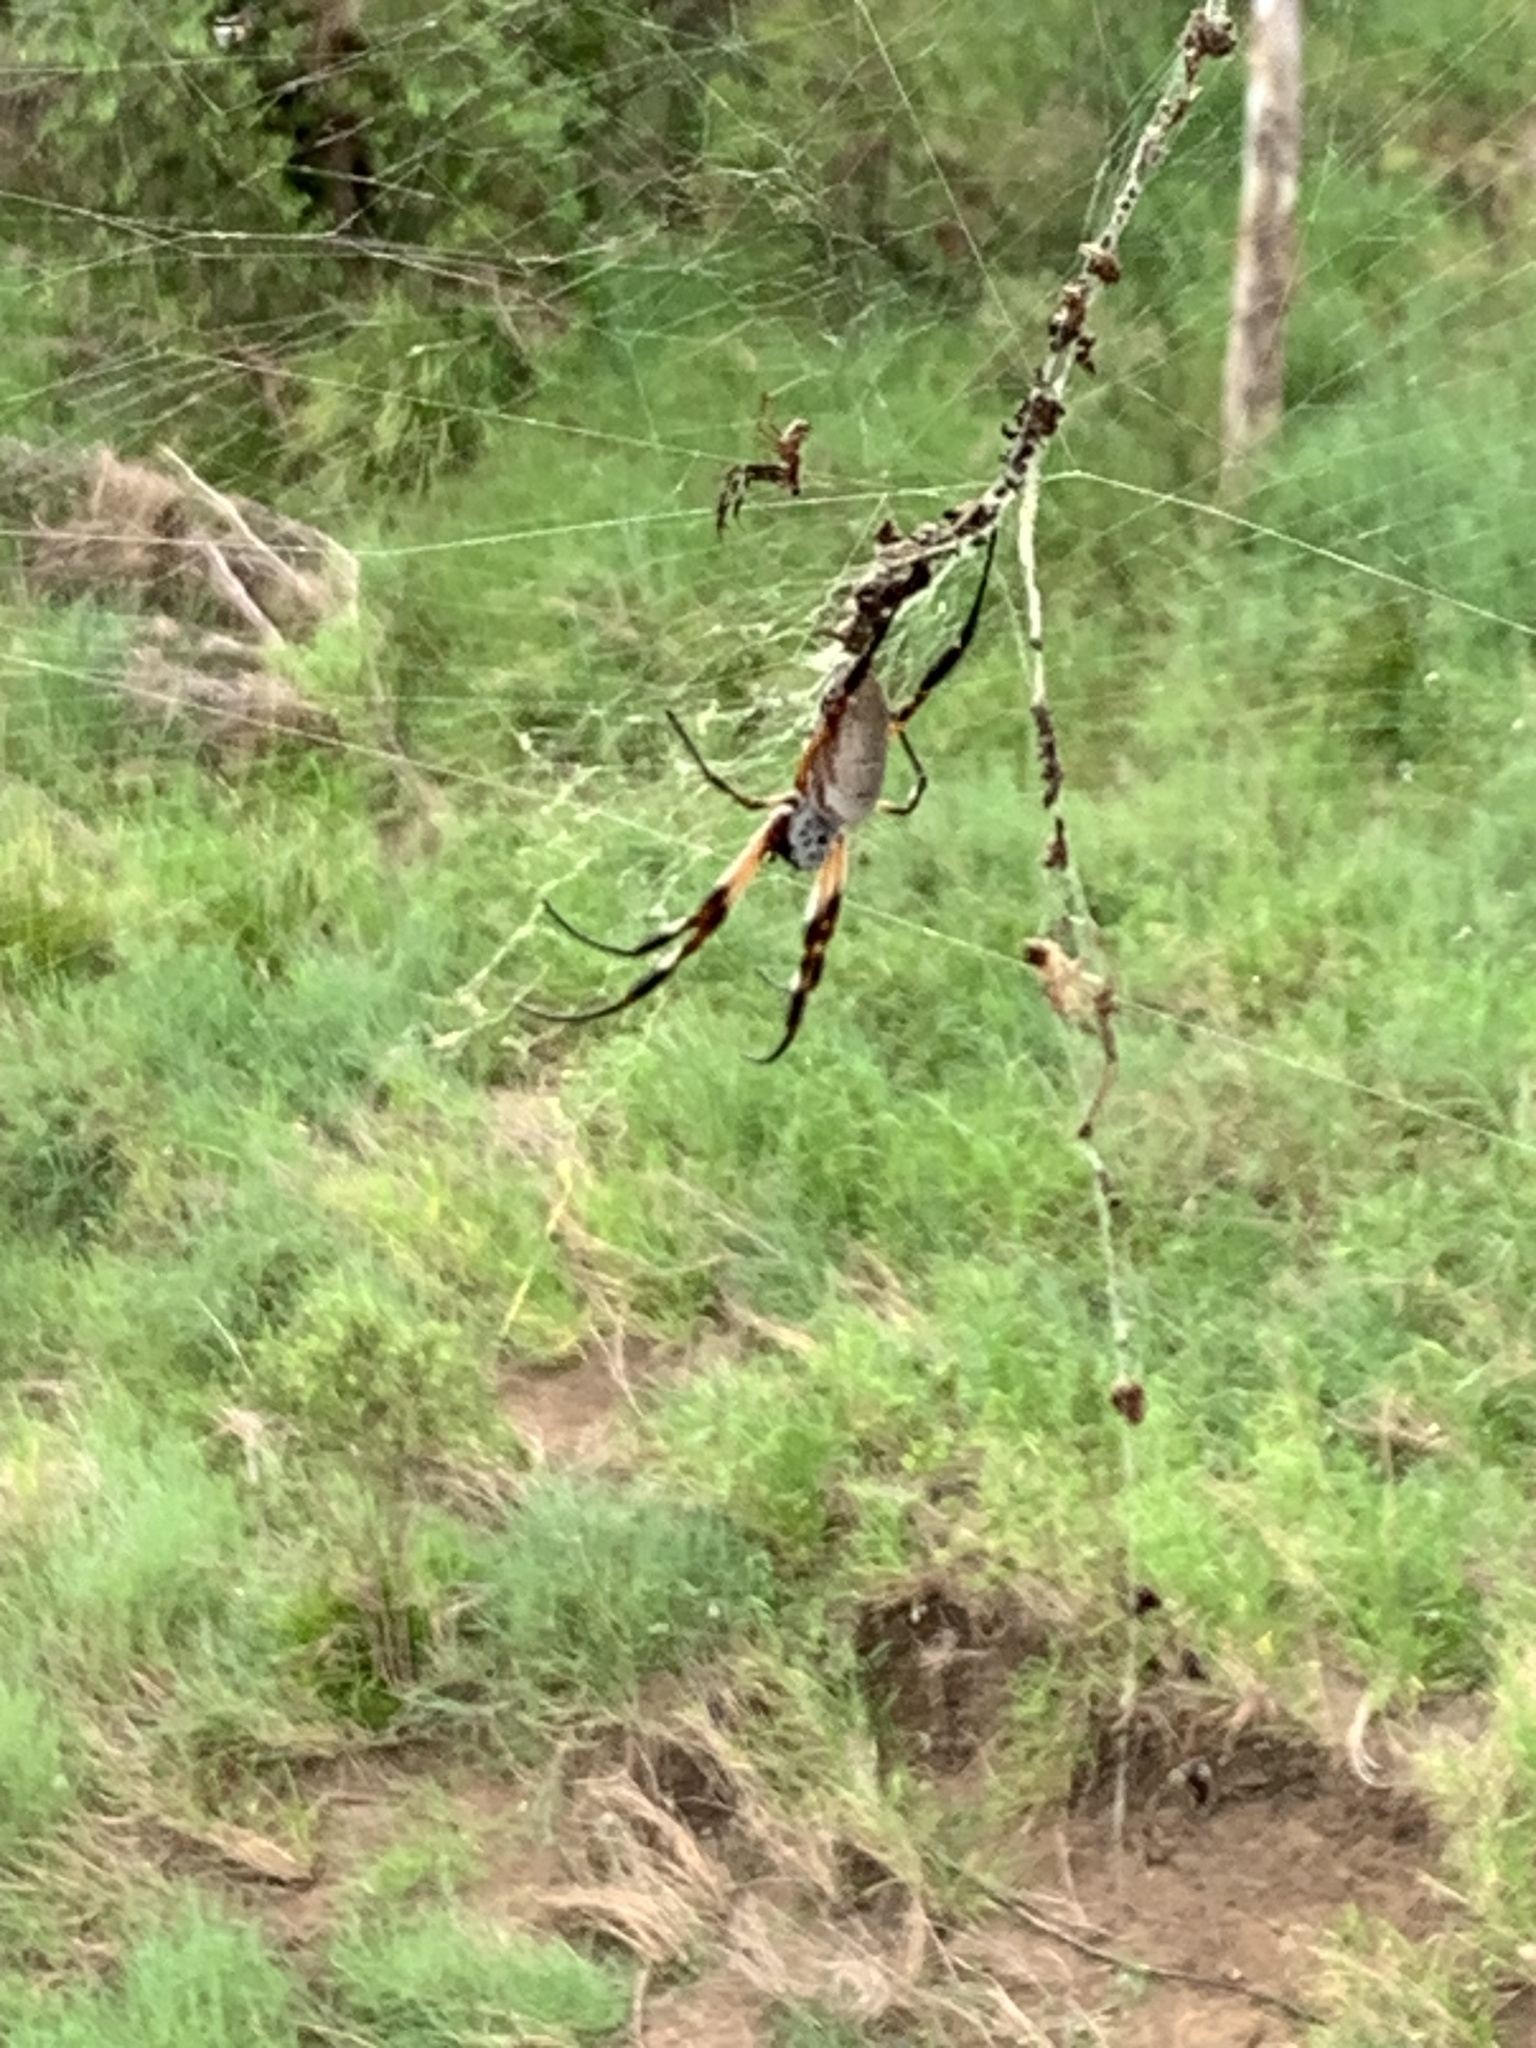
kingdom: Animalia
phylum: Arthropoda
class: Arachnida
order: Araneae
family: Araneidae
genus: Trichonephila
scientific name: Trichonephila edulis
